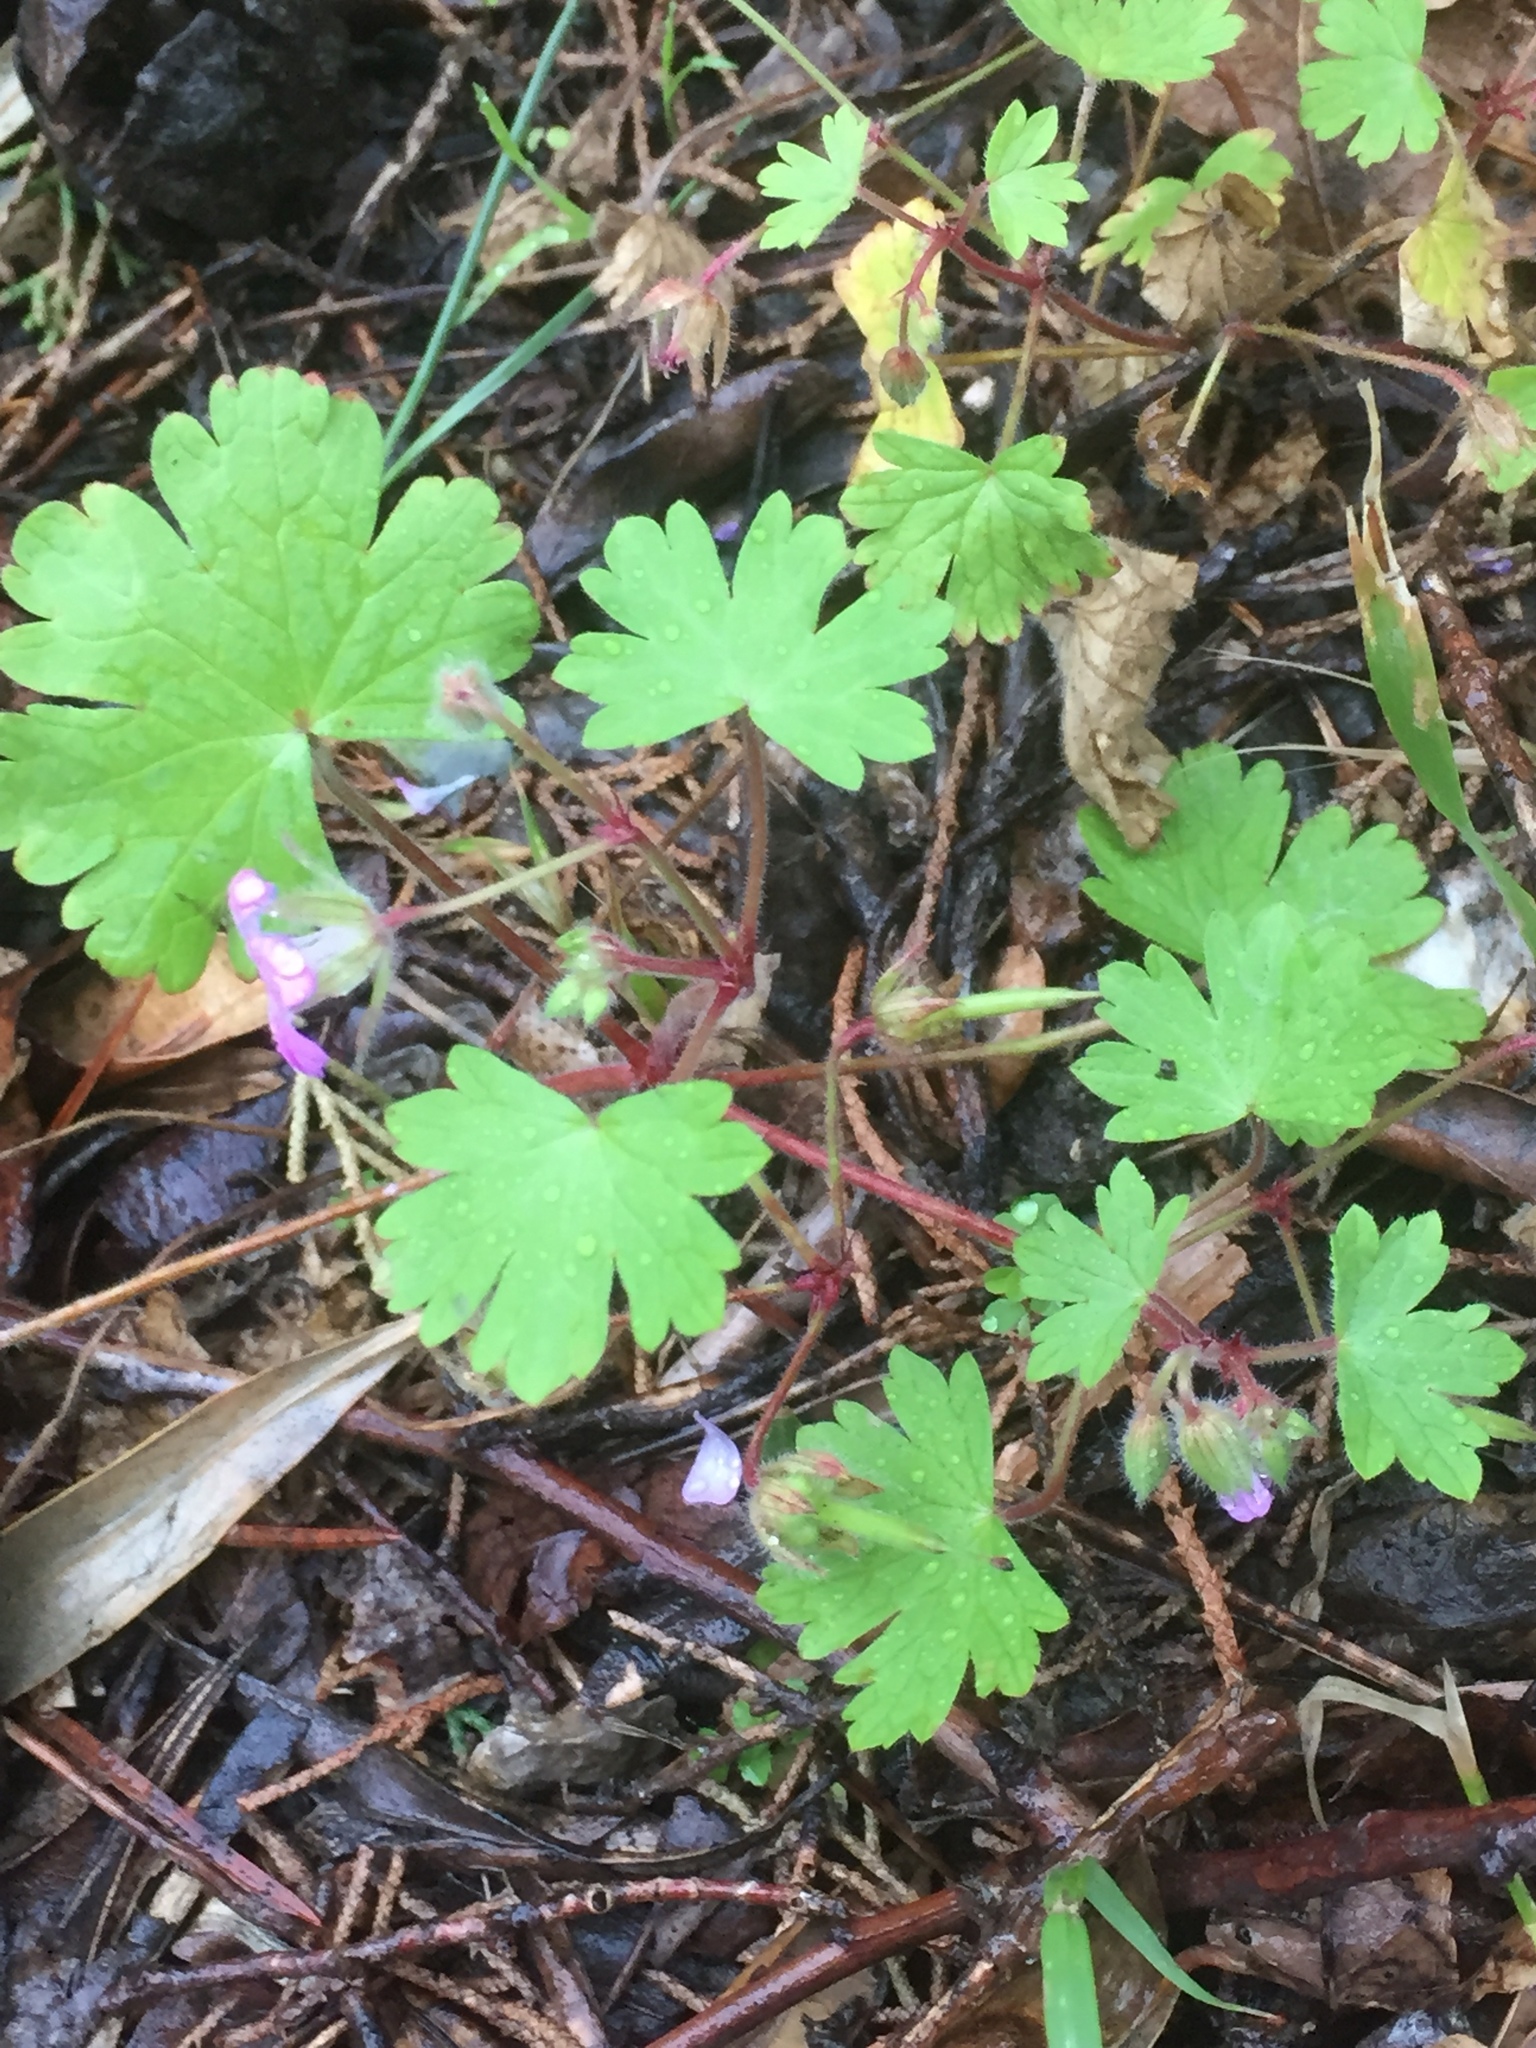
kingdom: Plantae
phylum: Tracheophyta
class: Magnoliopsida
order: Geraniales
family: Geraniaceae
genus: Geranium
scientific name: Geranium rotundifolium
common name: Round-leaved crane's-bill
